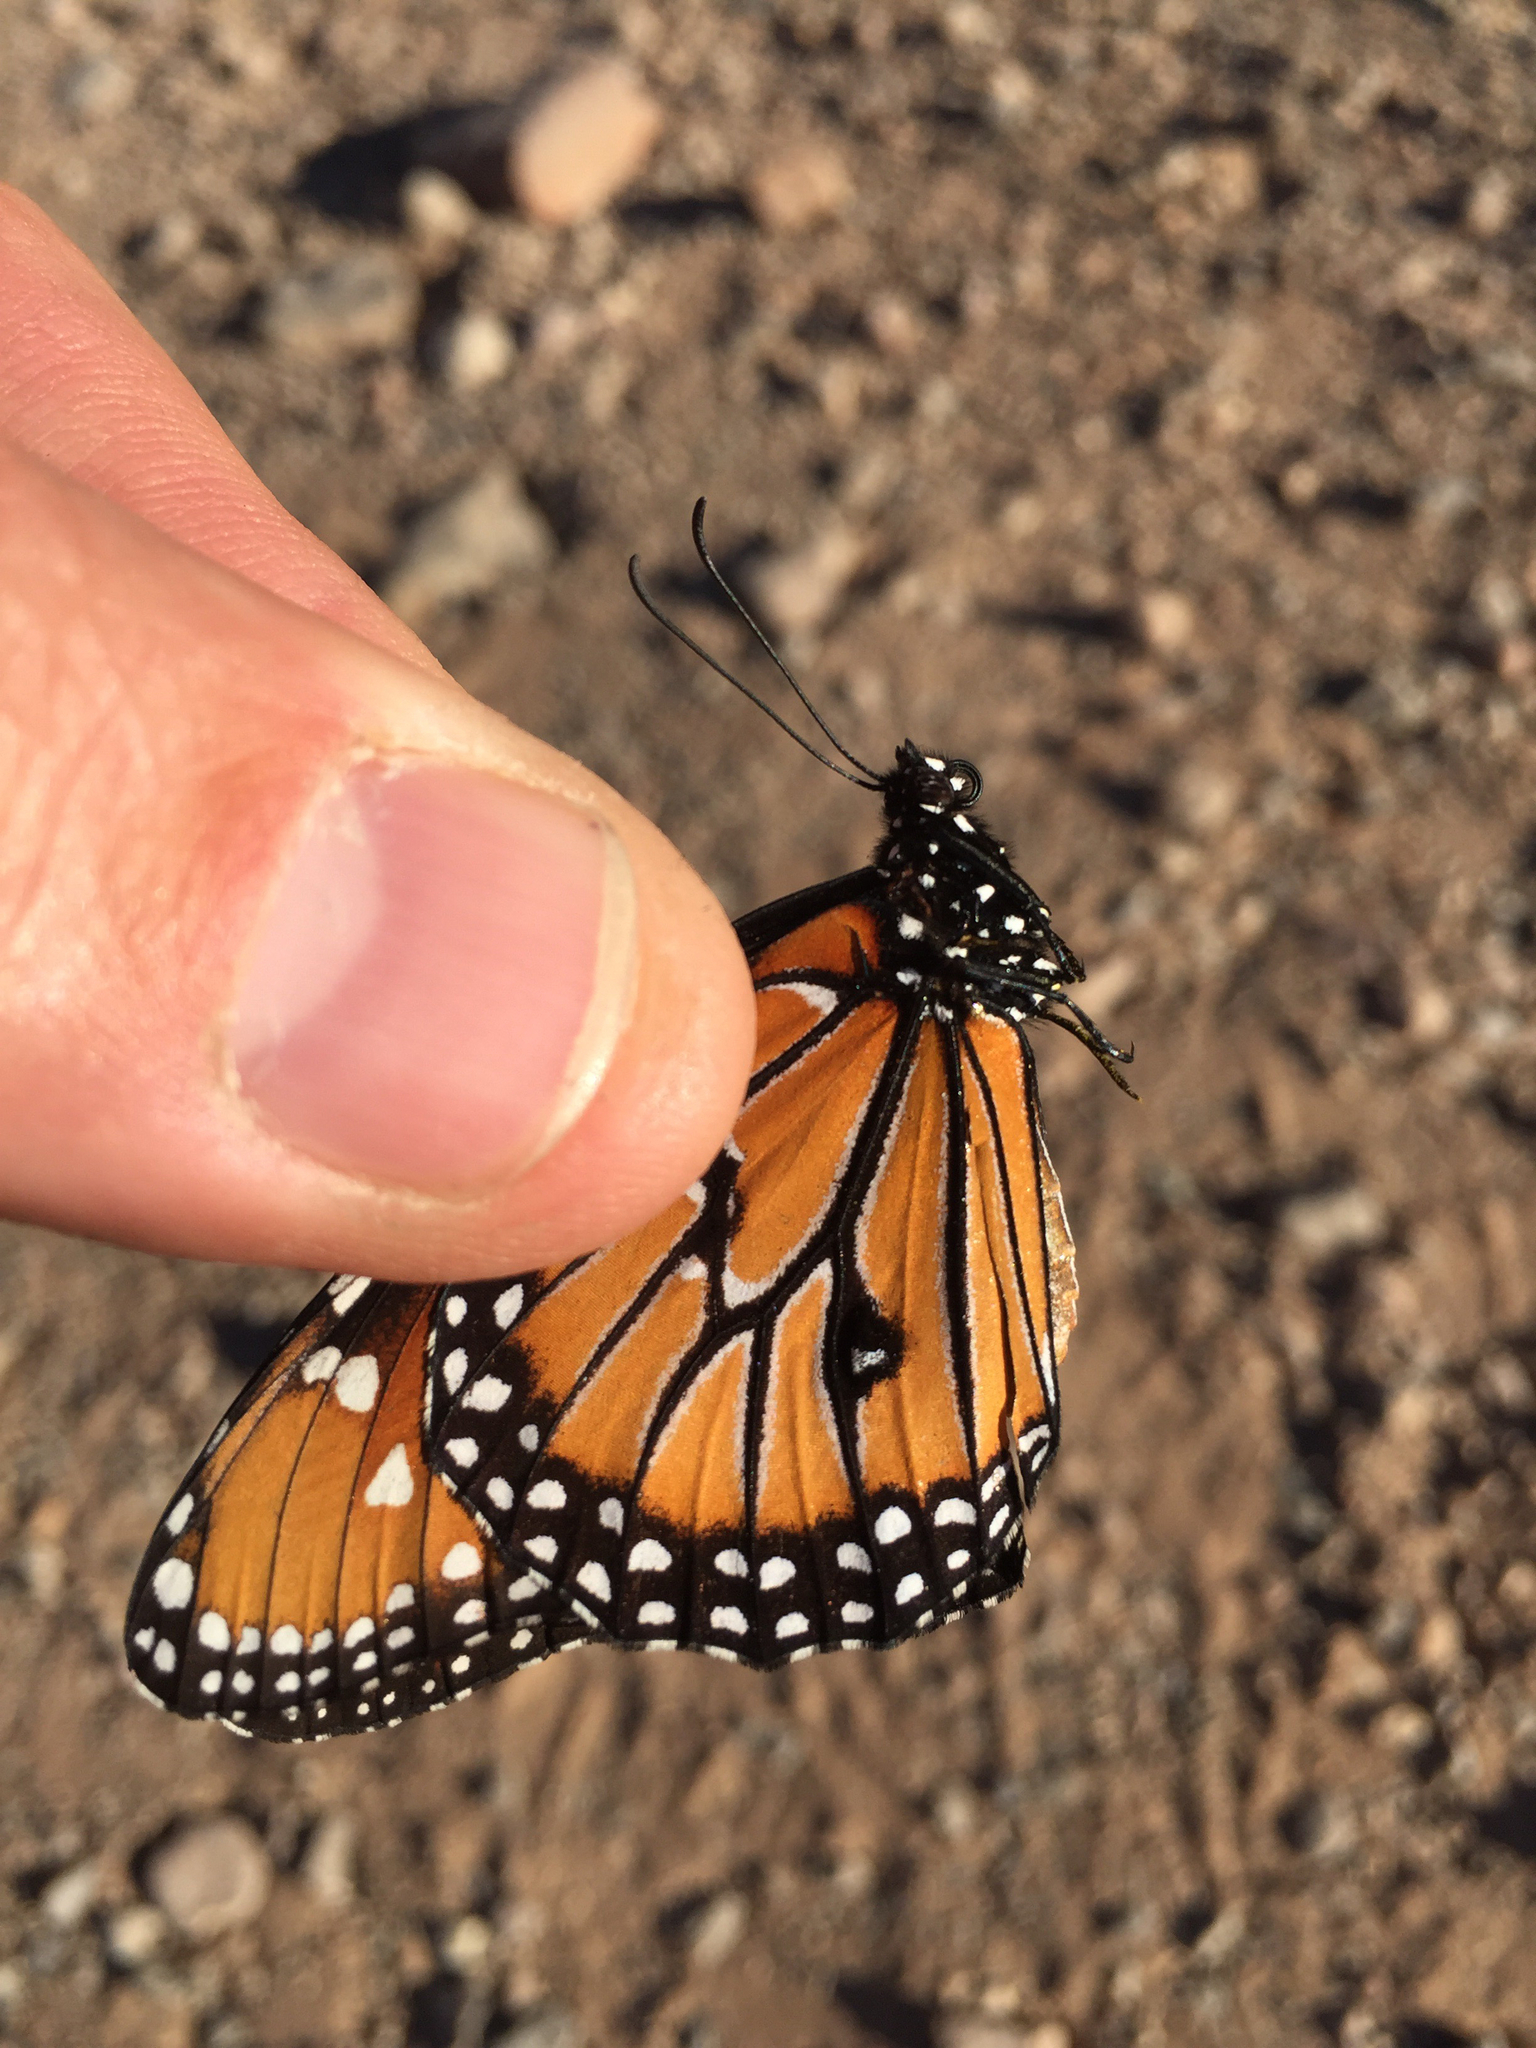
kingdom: Animalia
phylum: Arthropoda
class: Insecta
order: Lepidoptera
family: Nymphalidae
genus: Danaus
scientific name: Danaus gilippus
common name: Queen
